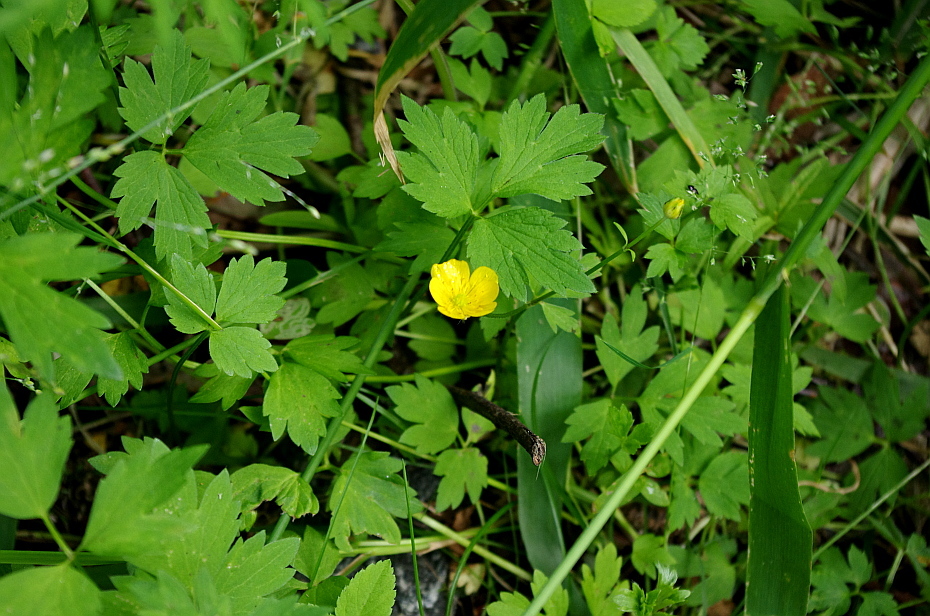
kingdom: Plantae
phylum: Tracheophyta
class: Magnoliopsida
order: Ranunculales
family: Ranunculaceae
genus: Ranunculus
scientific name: Ranunculus repens
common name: Creeping buttercup
